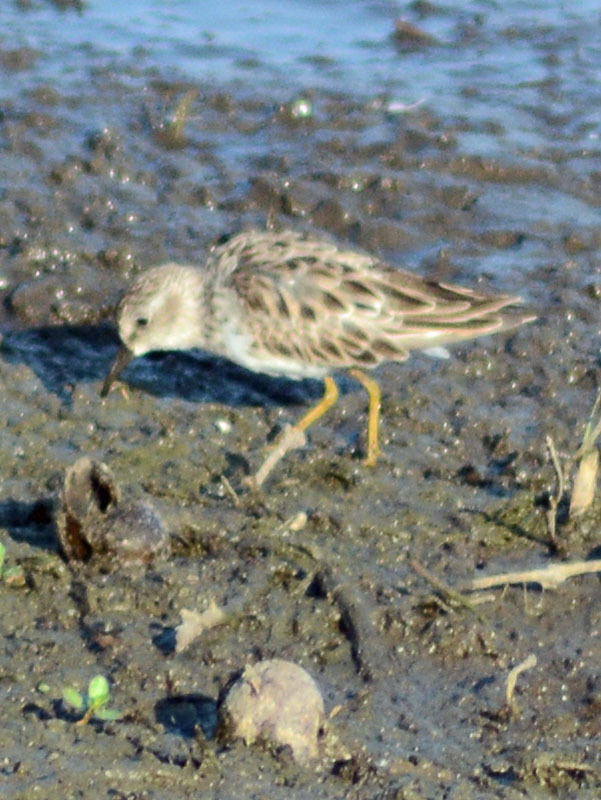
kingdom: Animalia
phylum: Chordata
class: Aves
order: Charadriiformes
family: Scolopacidae
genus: Calidris
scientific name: Calidris minutilla
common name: Least sandpiper
